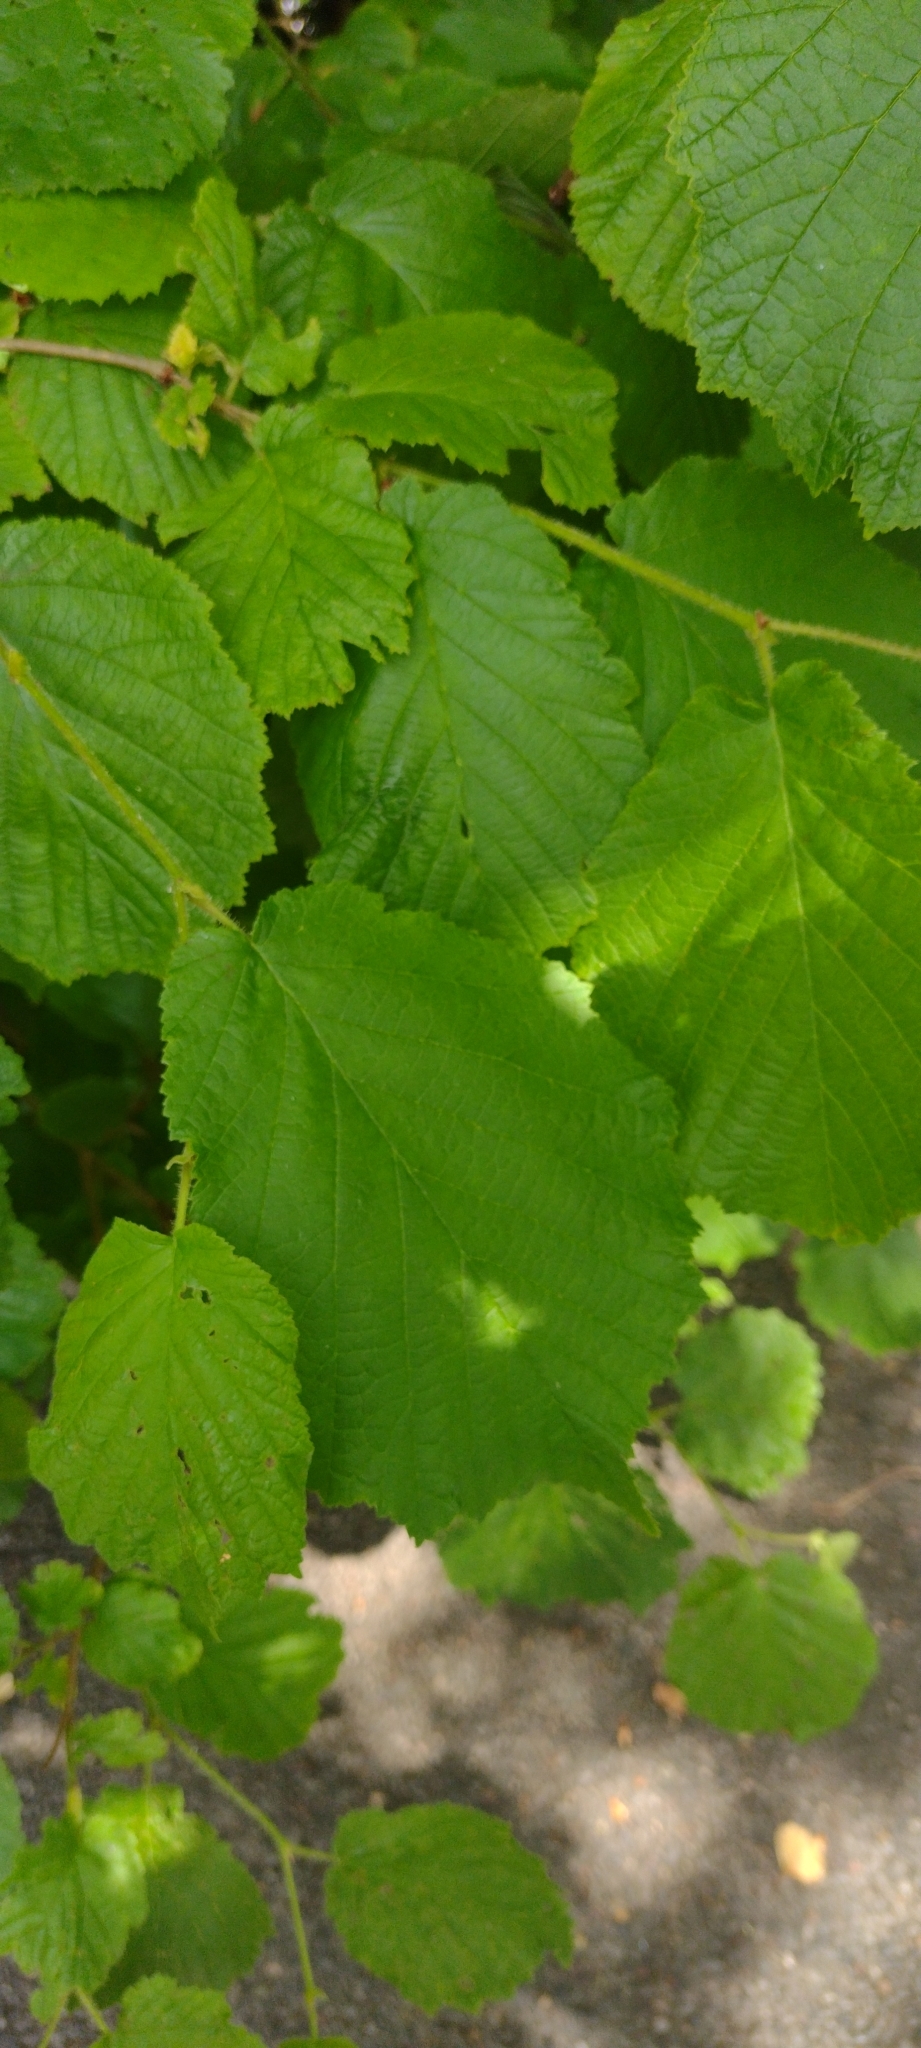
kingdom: Plantae
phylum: Tracheophyta
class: Magnoliopsida
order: Fagales
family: Betulaceae
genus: Corylus
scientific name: Corylus avellana
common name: European hazel
